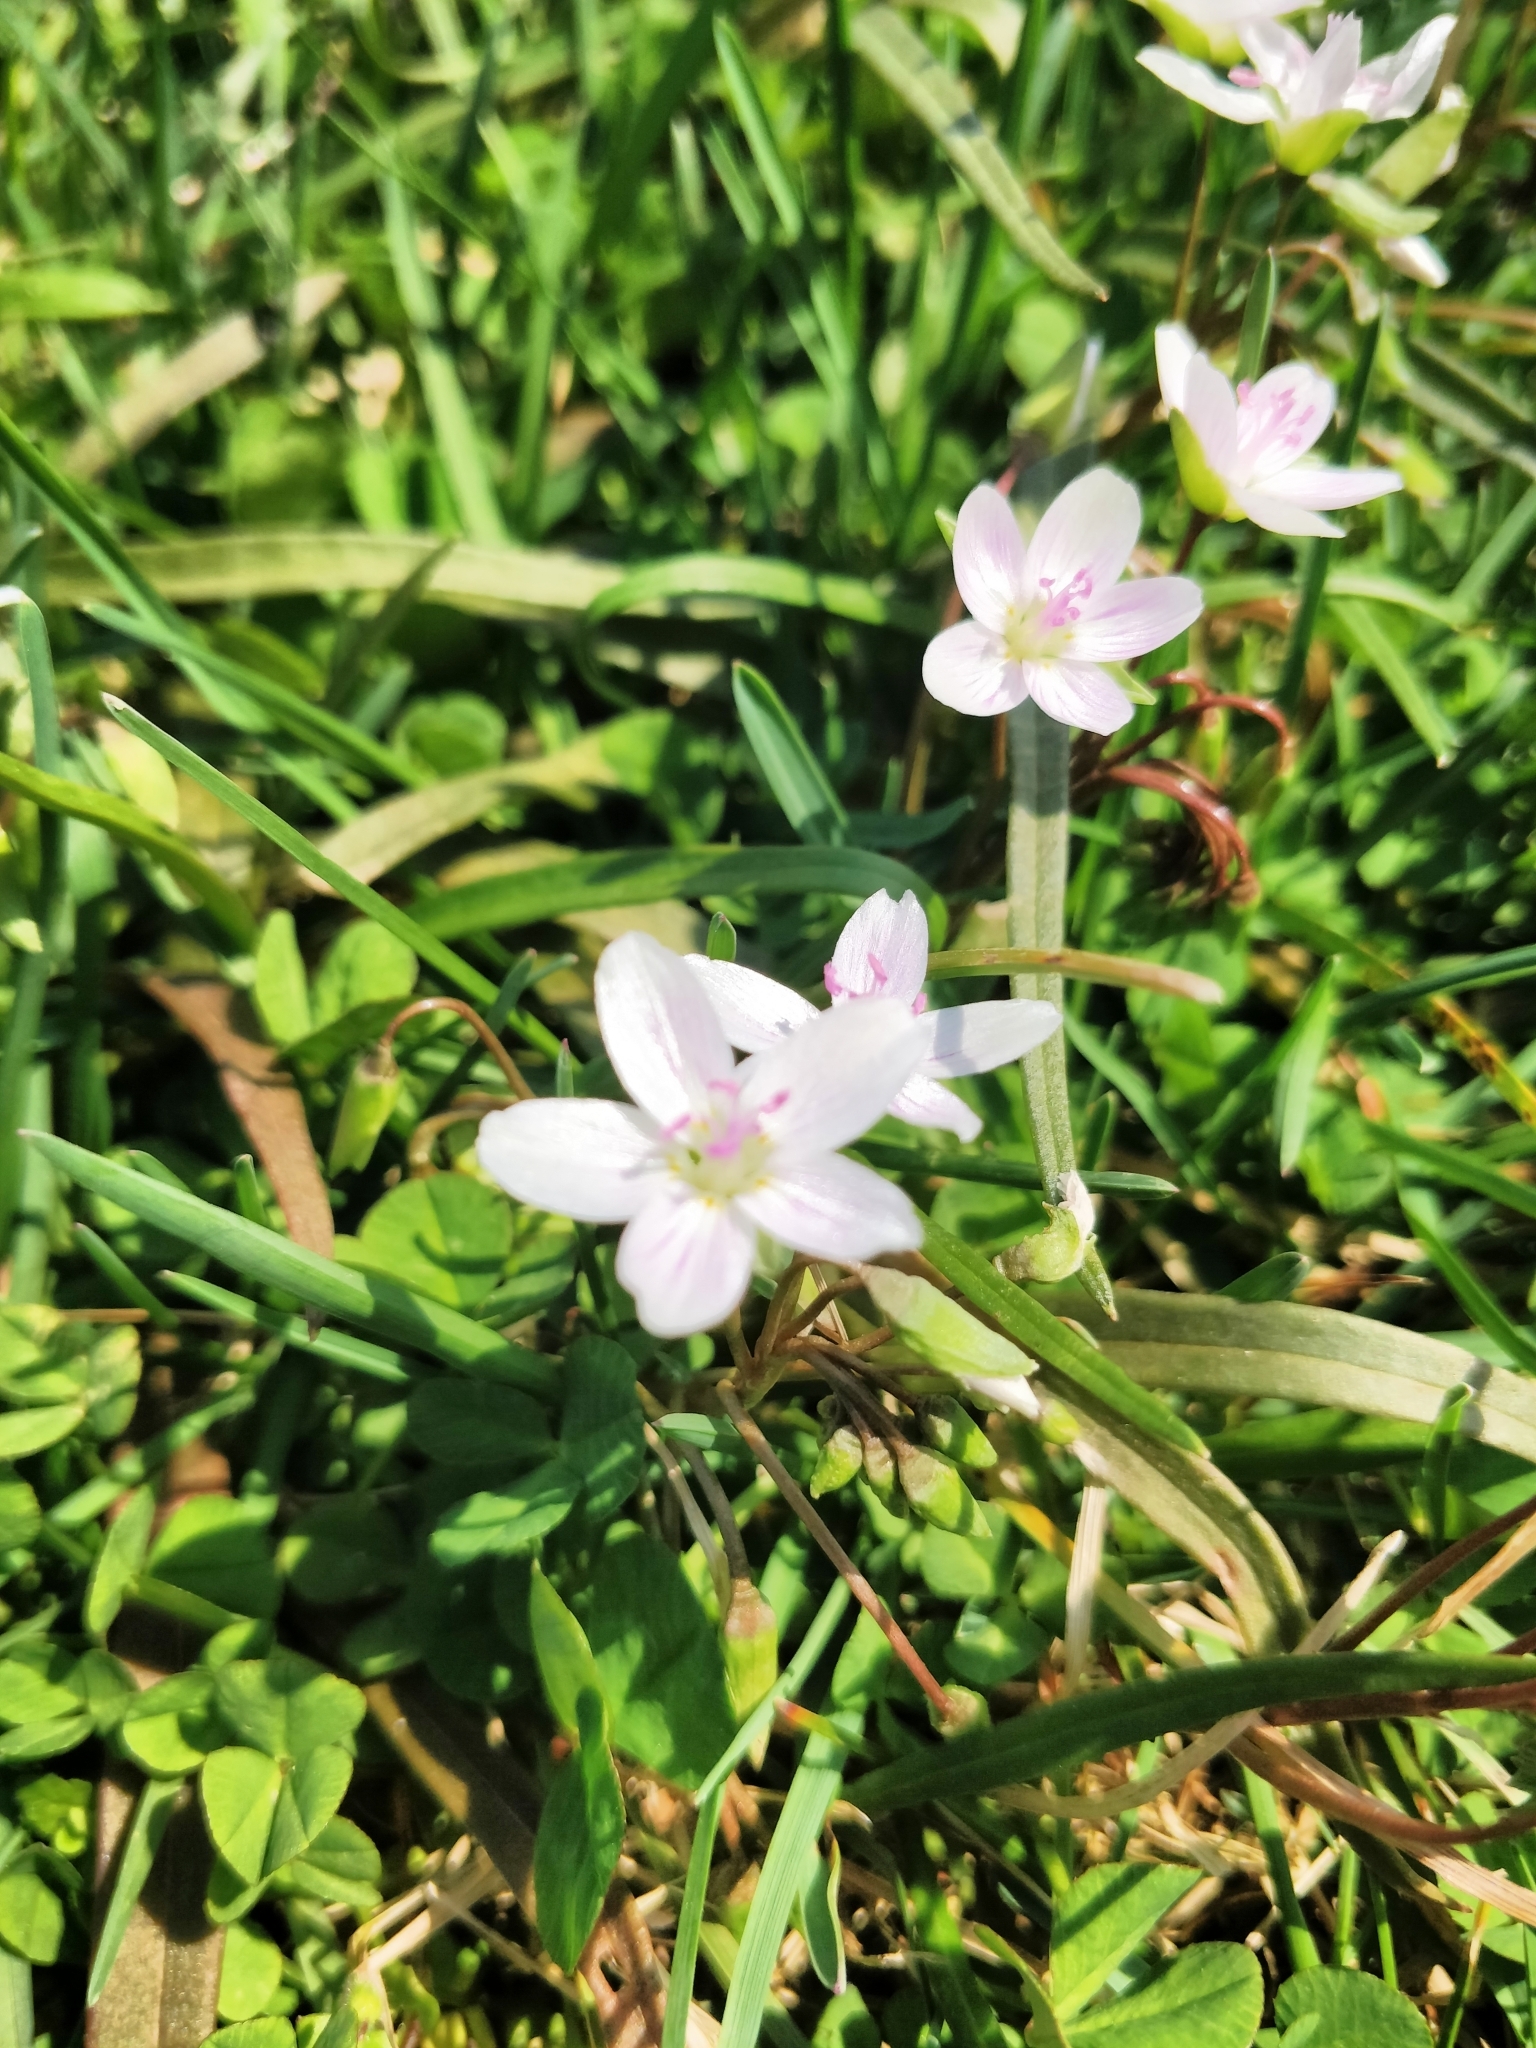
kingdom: Plantae
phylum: Tracheophyta
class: Magnoliopsida
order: Caryophyllales
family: Montiaceae
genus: Claytonia
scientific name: Claytonia virginica
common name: Virginia springbeauty
